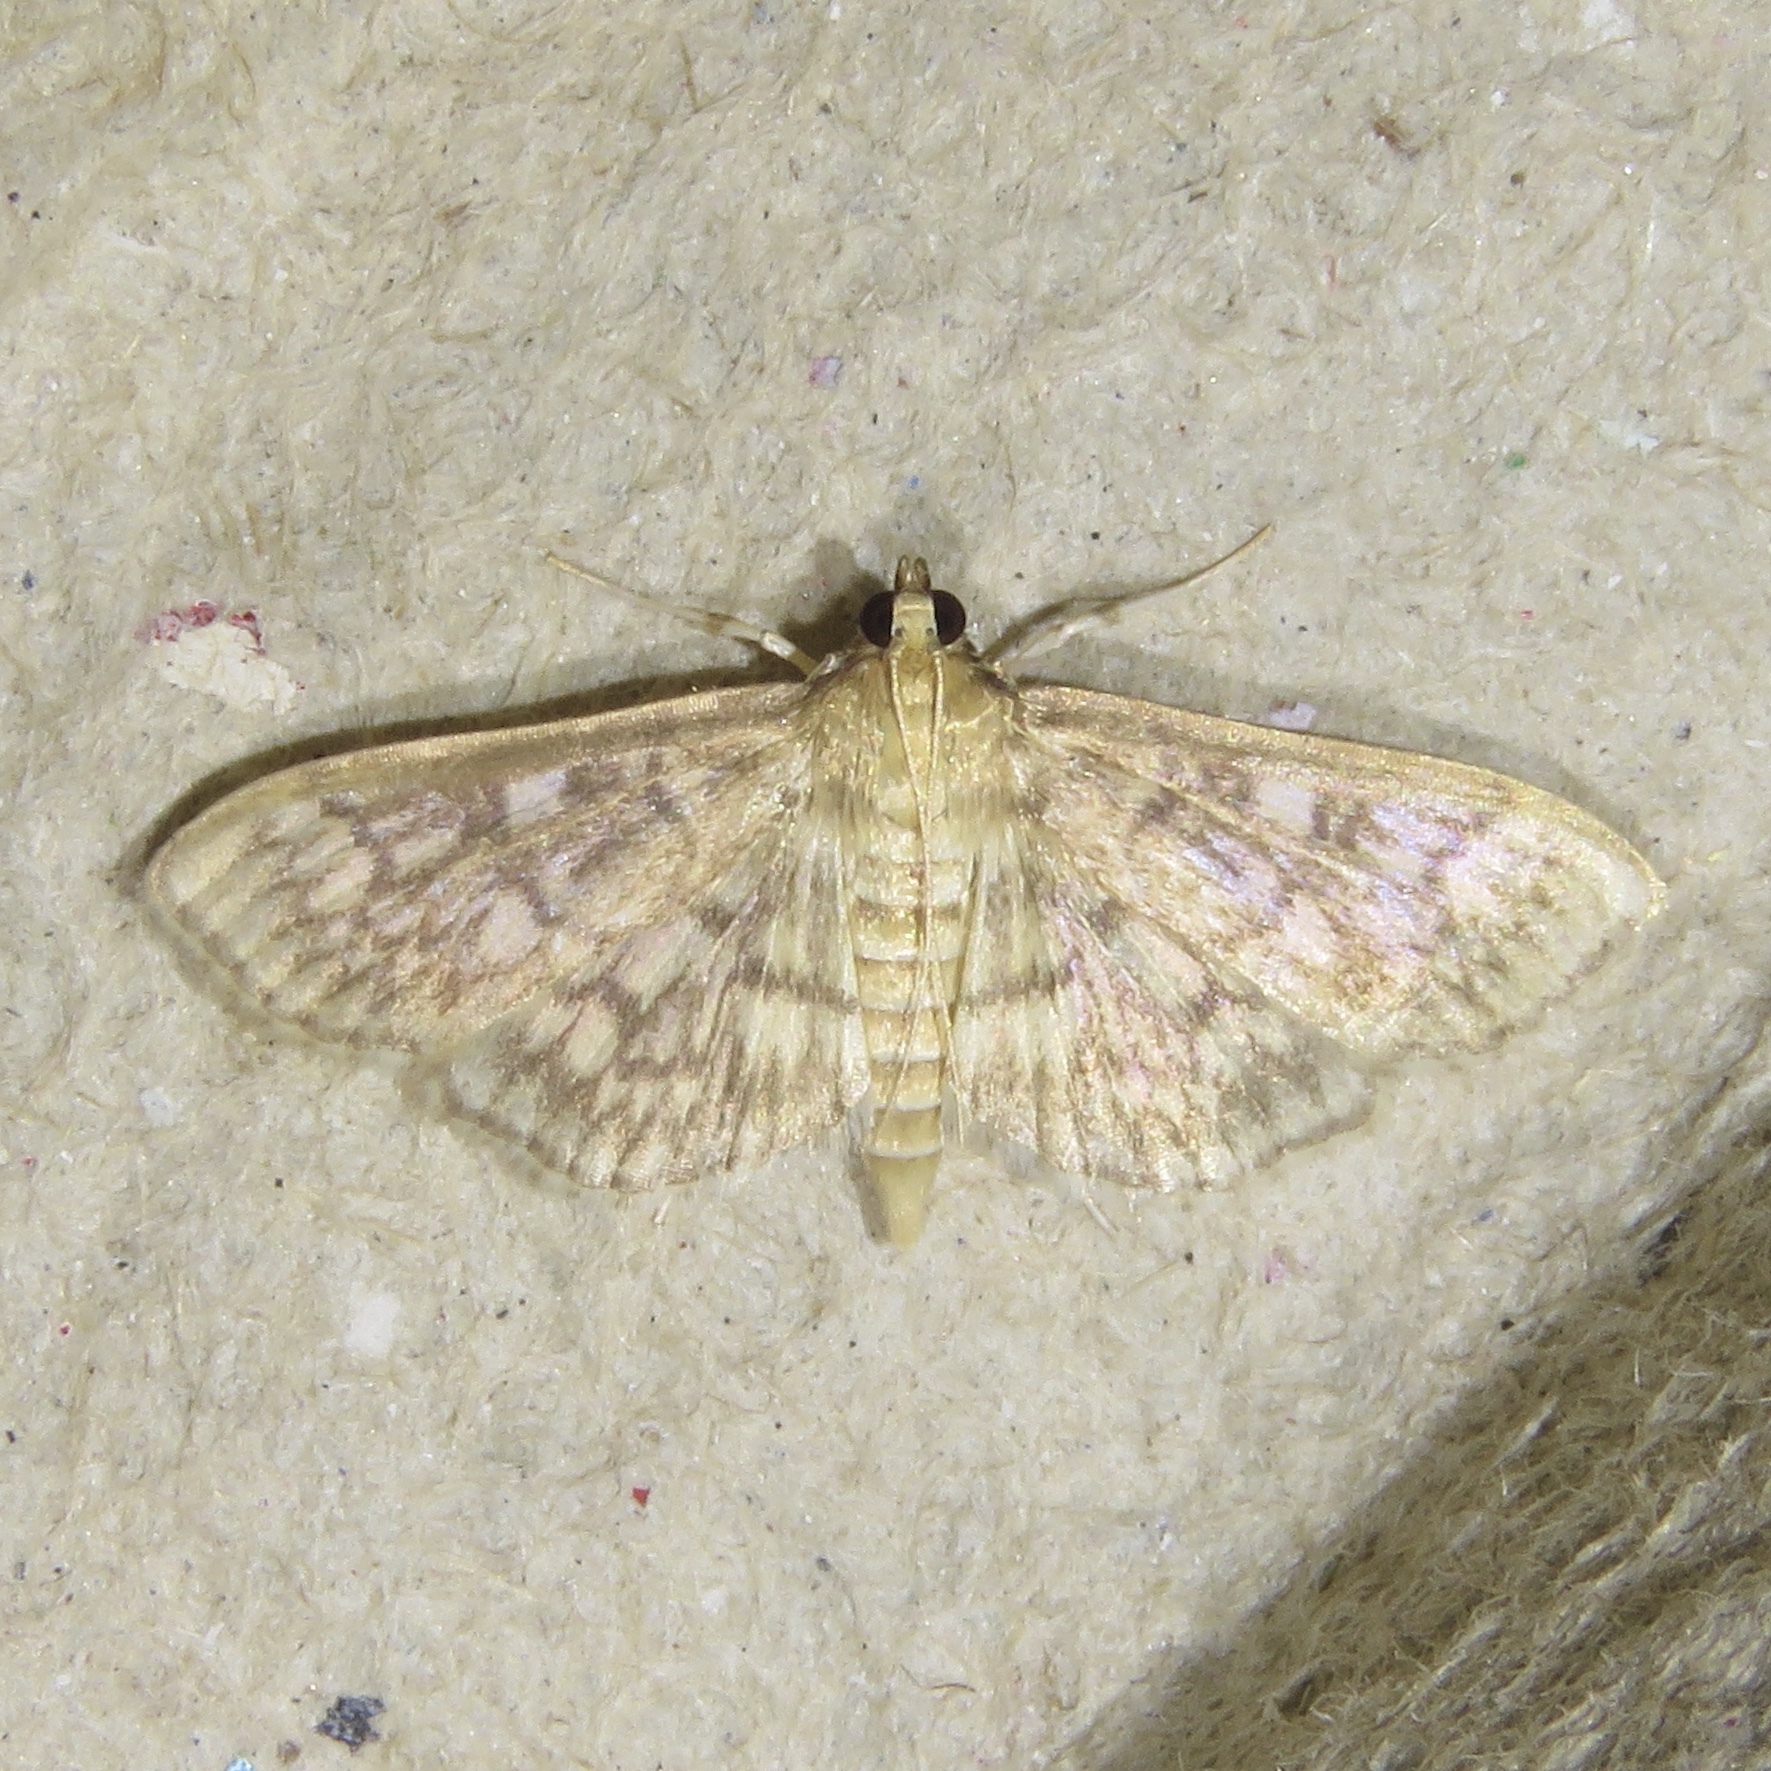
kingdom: Animalia
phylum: Arthropoda
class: Insecta
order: Lepidoptera
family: Crambidae
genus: Herpetogramma
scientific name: Herpetogramma pertextalis
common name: Bold-feathered grass moth
